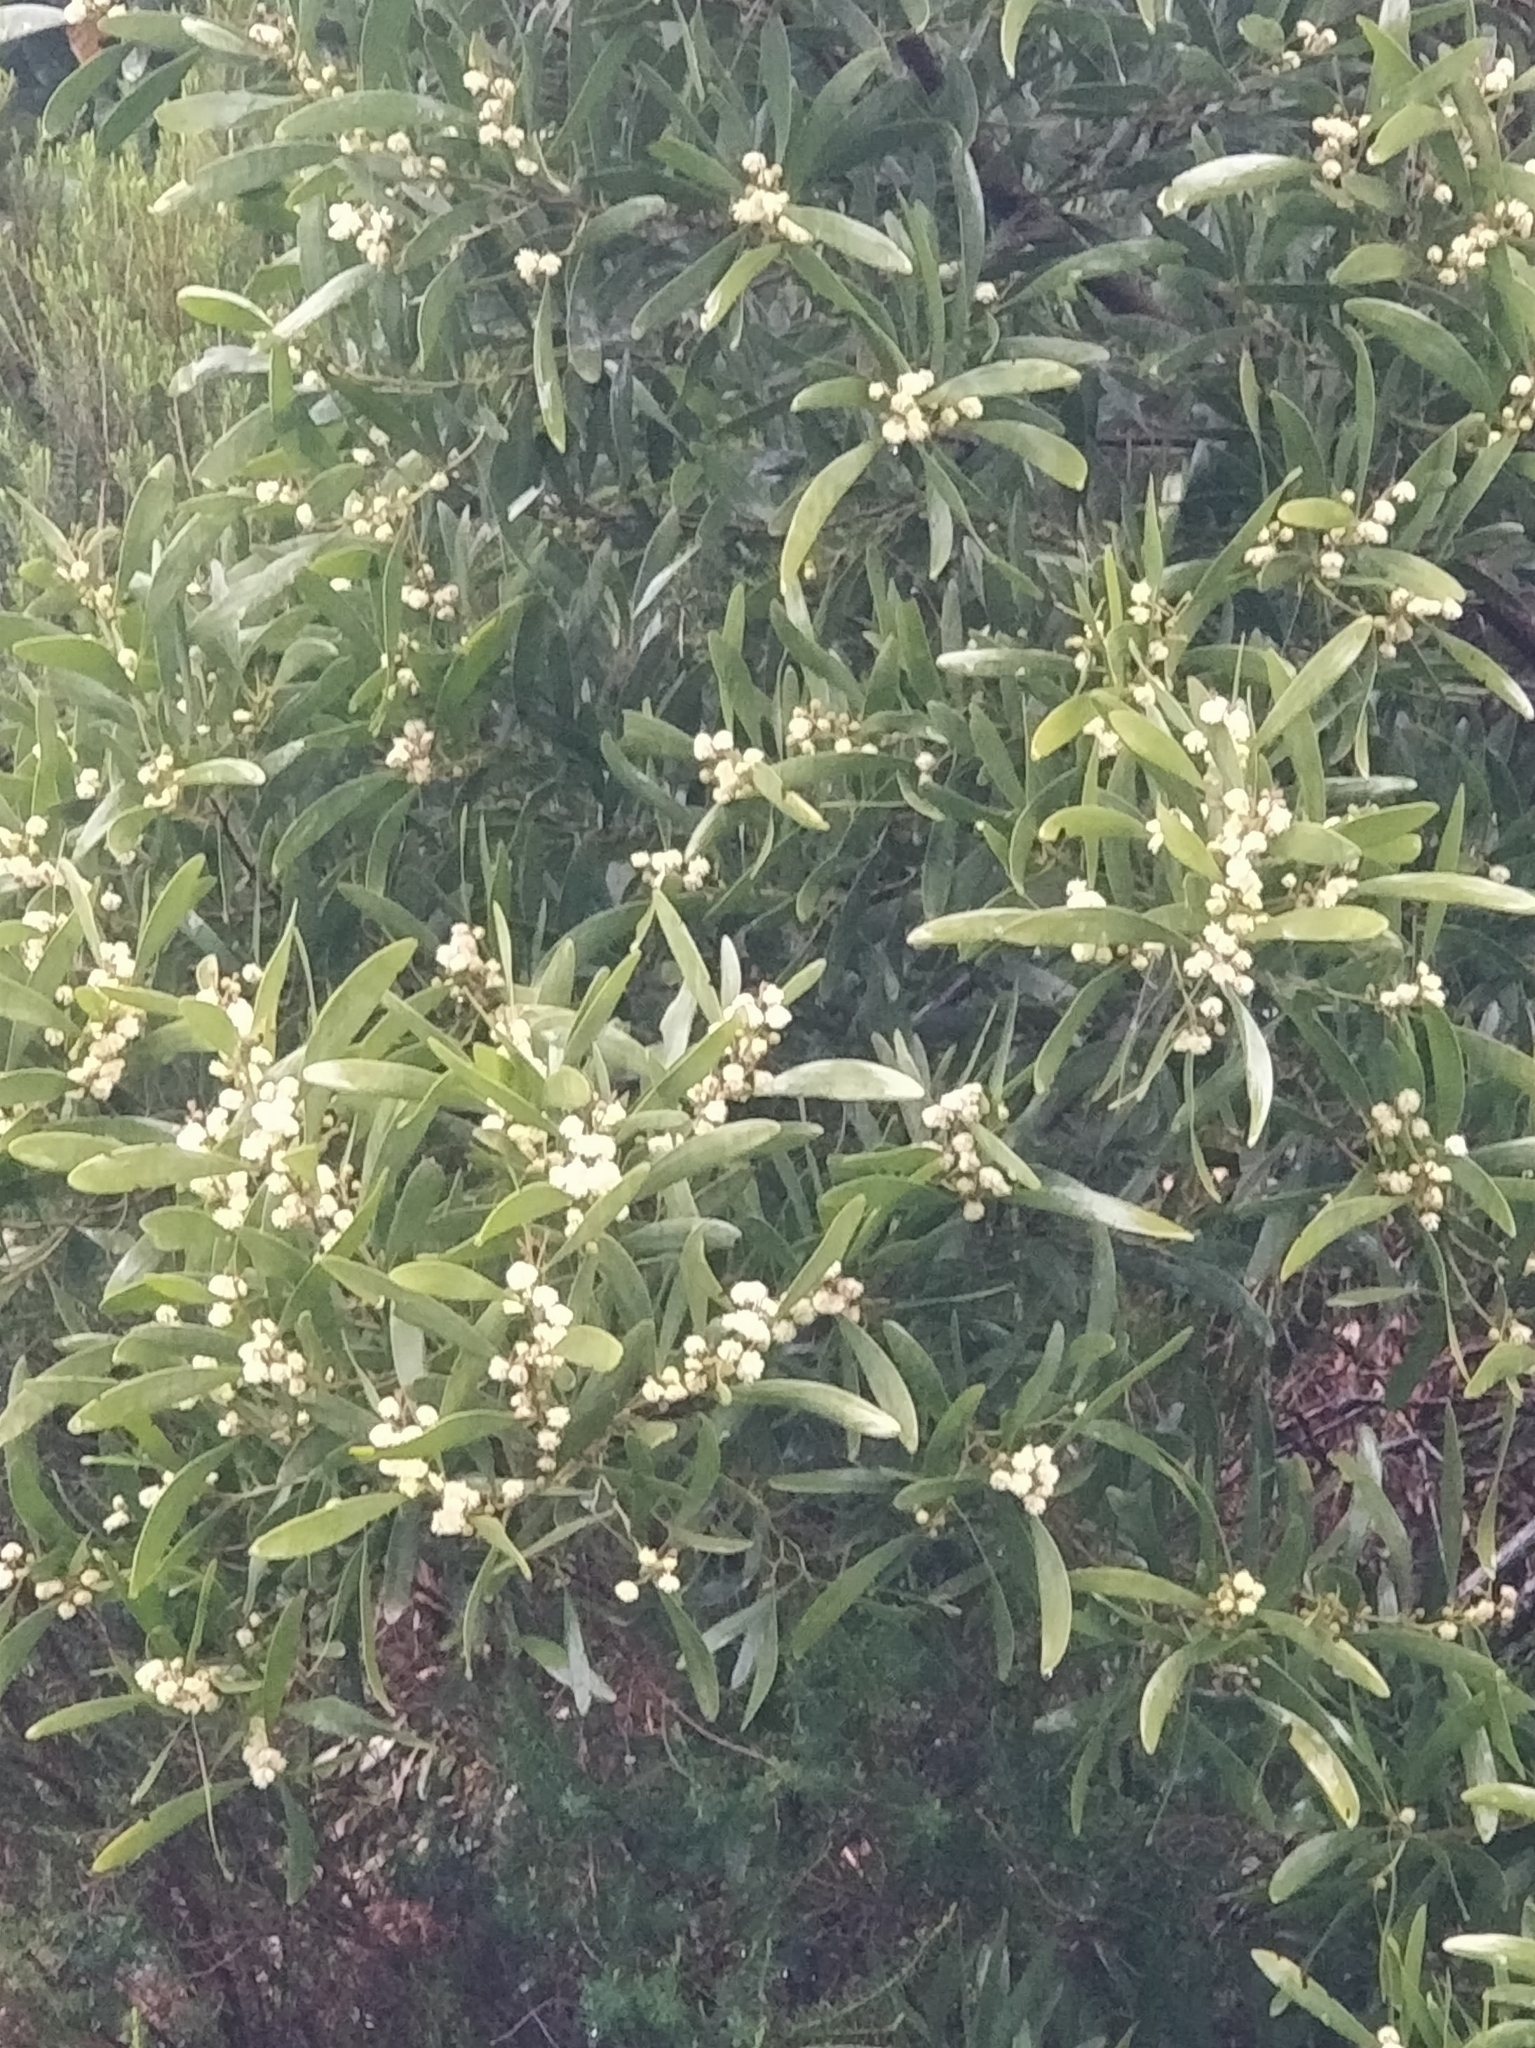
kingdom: Plantae
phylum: Tracheophyta
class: Magnoliopsida
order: Fabales
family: Fabaceae
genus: Acacia
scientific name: Acacia melanoxylon
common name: Blackwood
